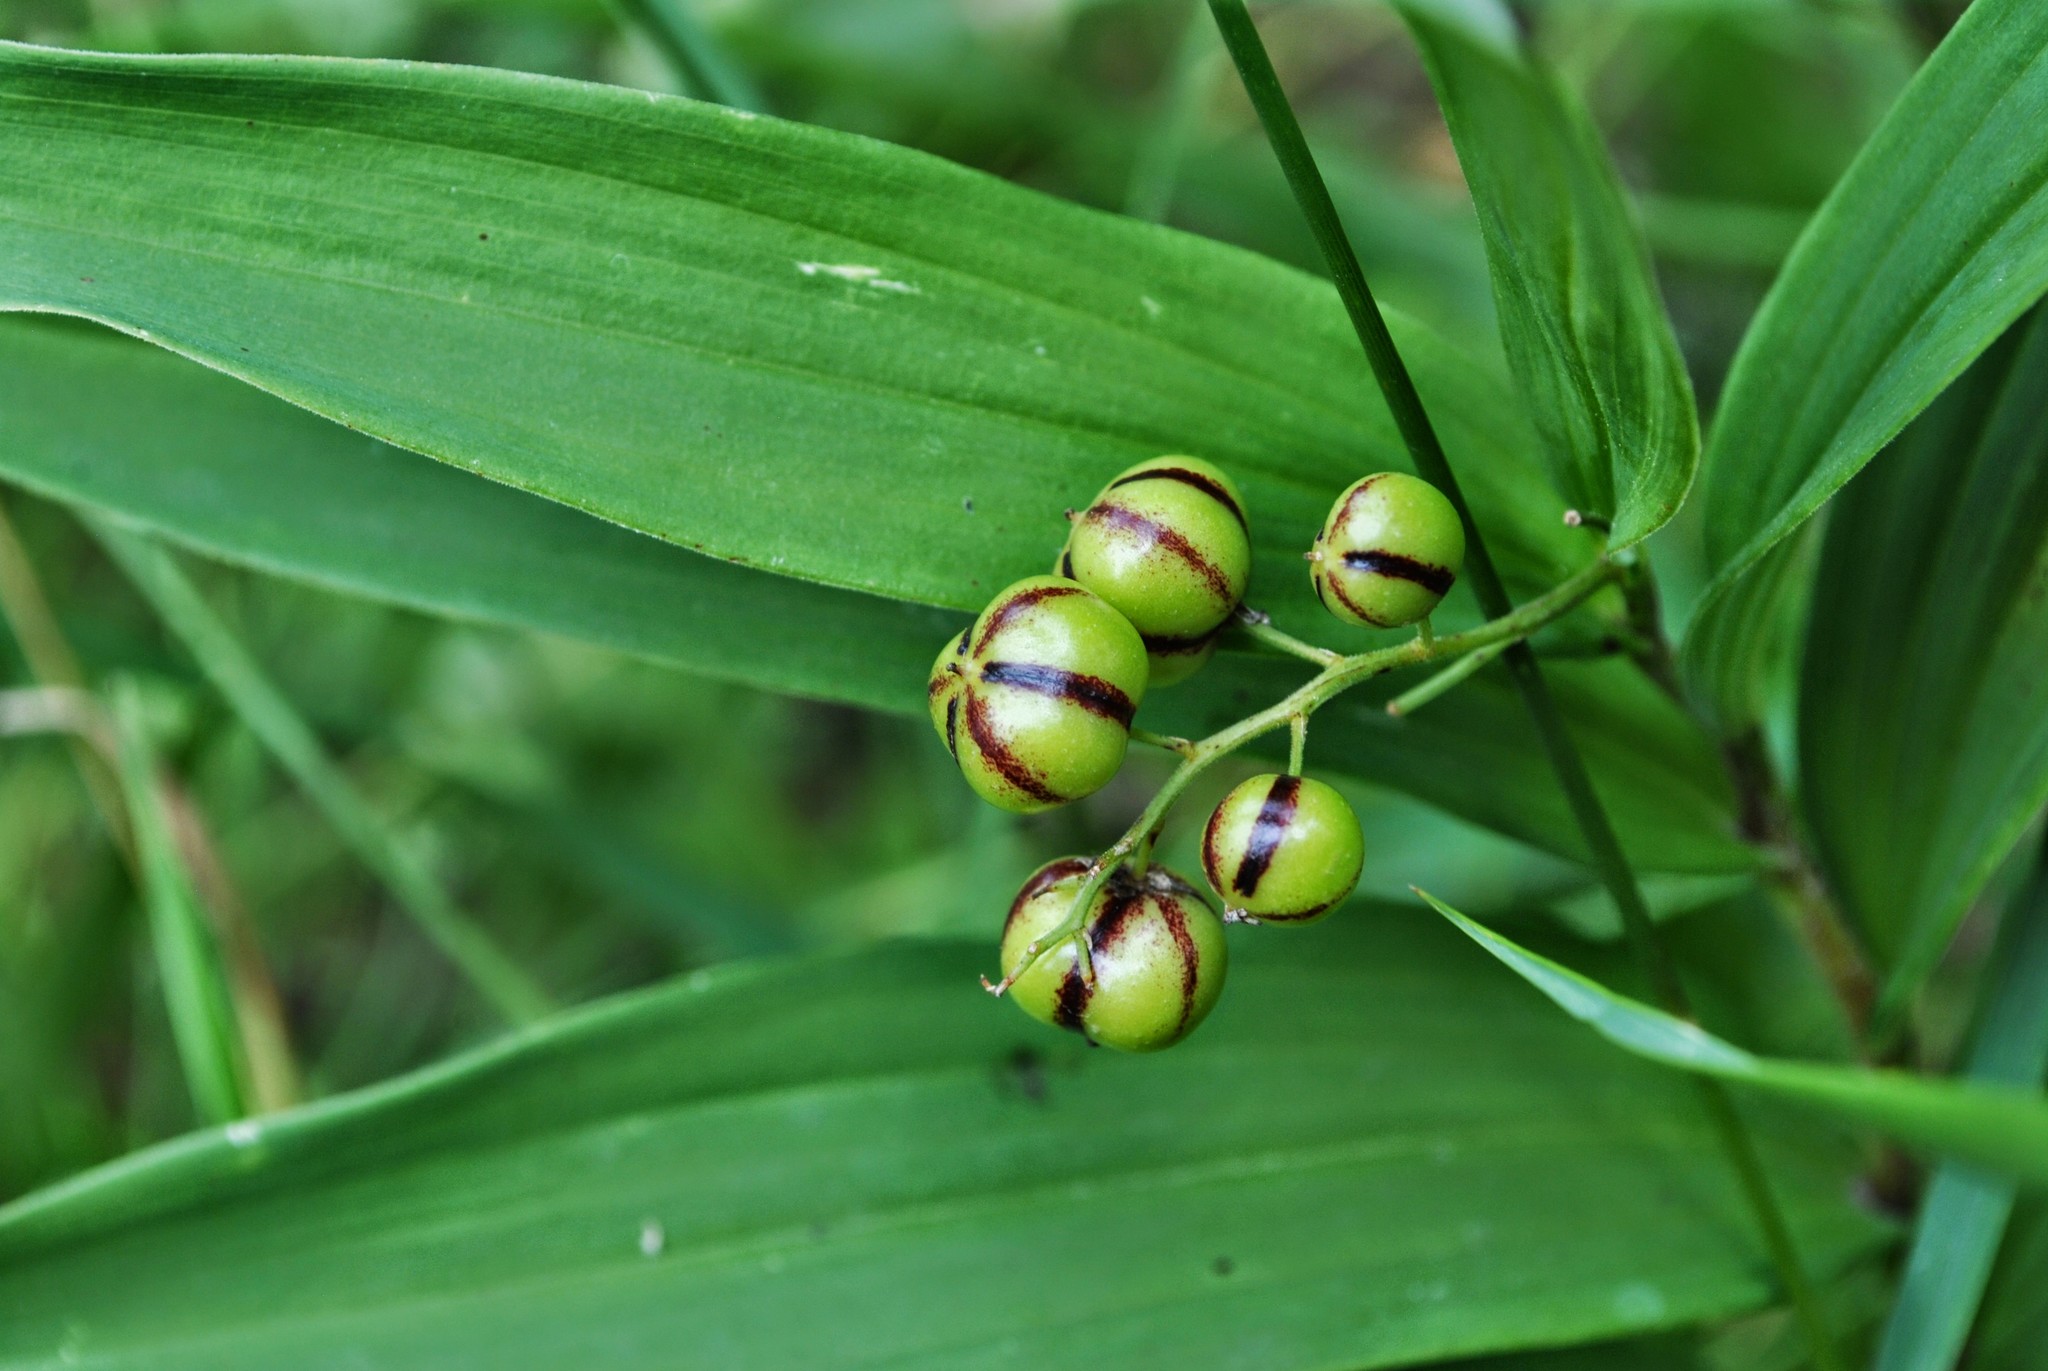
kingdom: Plantae
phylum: Tracheophyta
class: Liliopsida
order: Asparagales
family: Asparagaceae
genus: Maianthemum
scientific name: Maianthemum stellatum
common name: Little false solomon's seal
